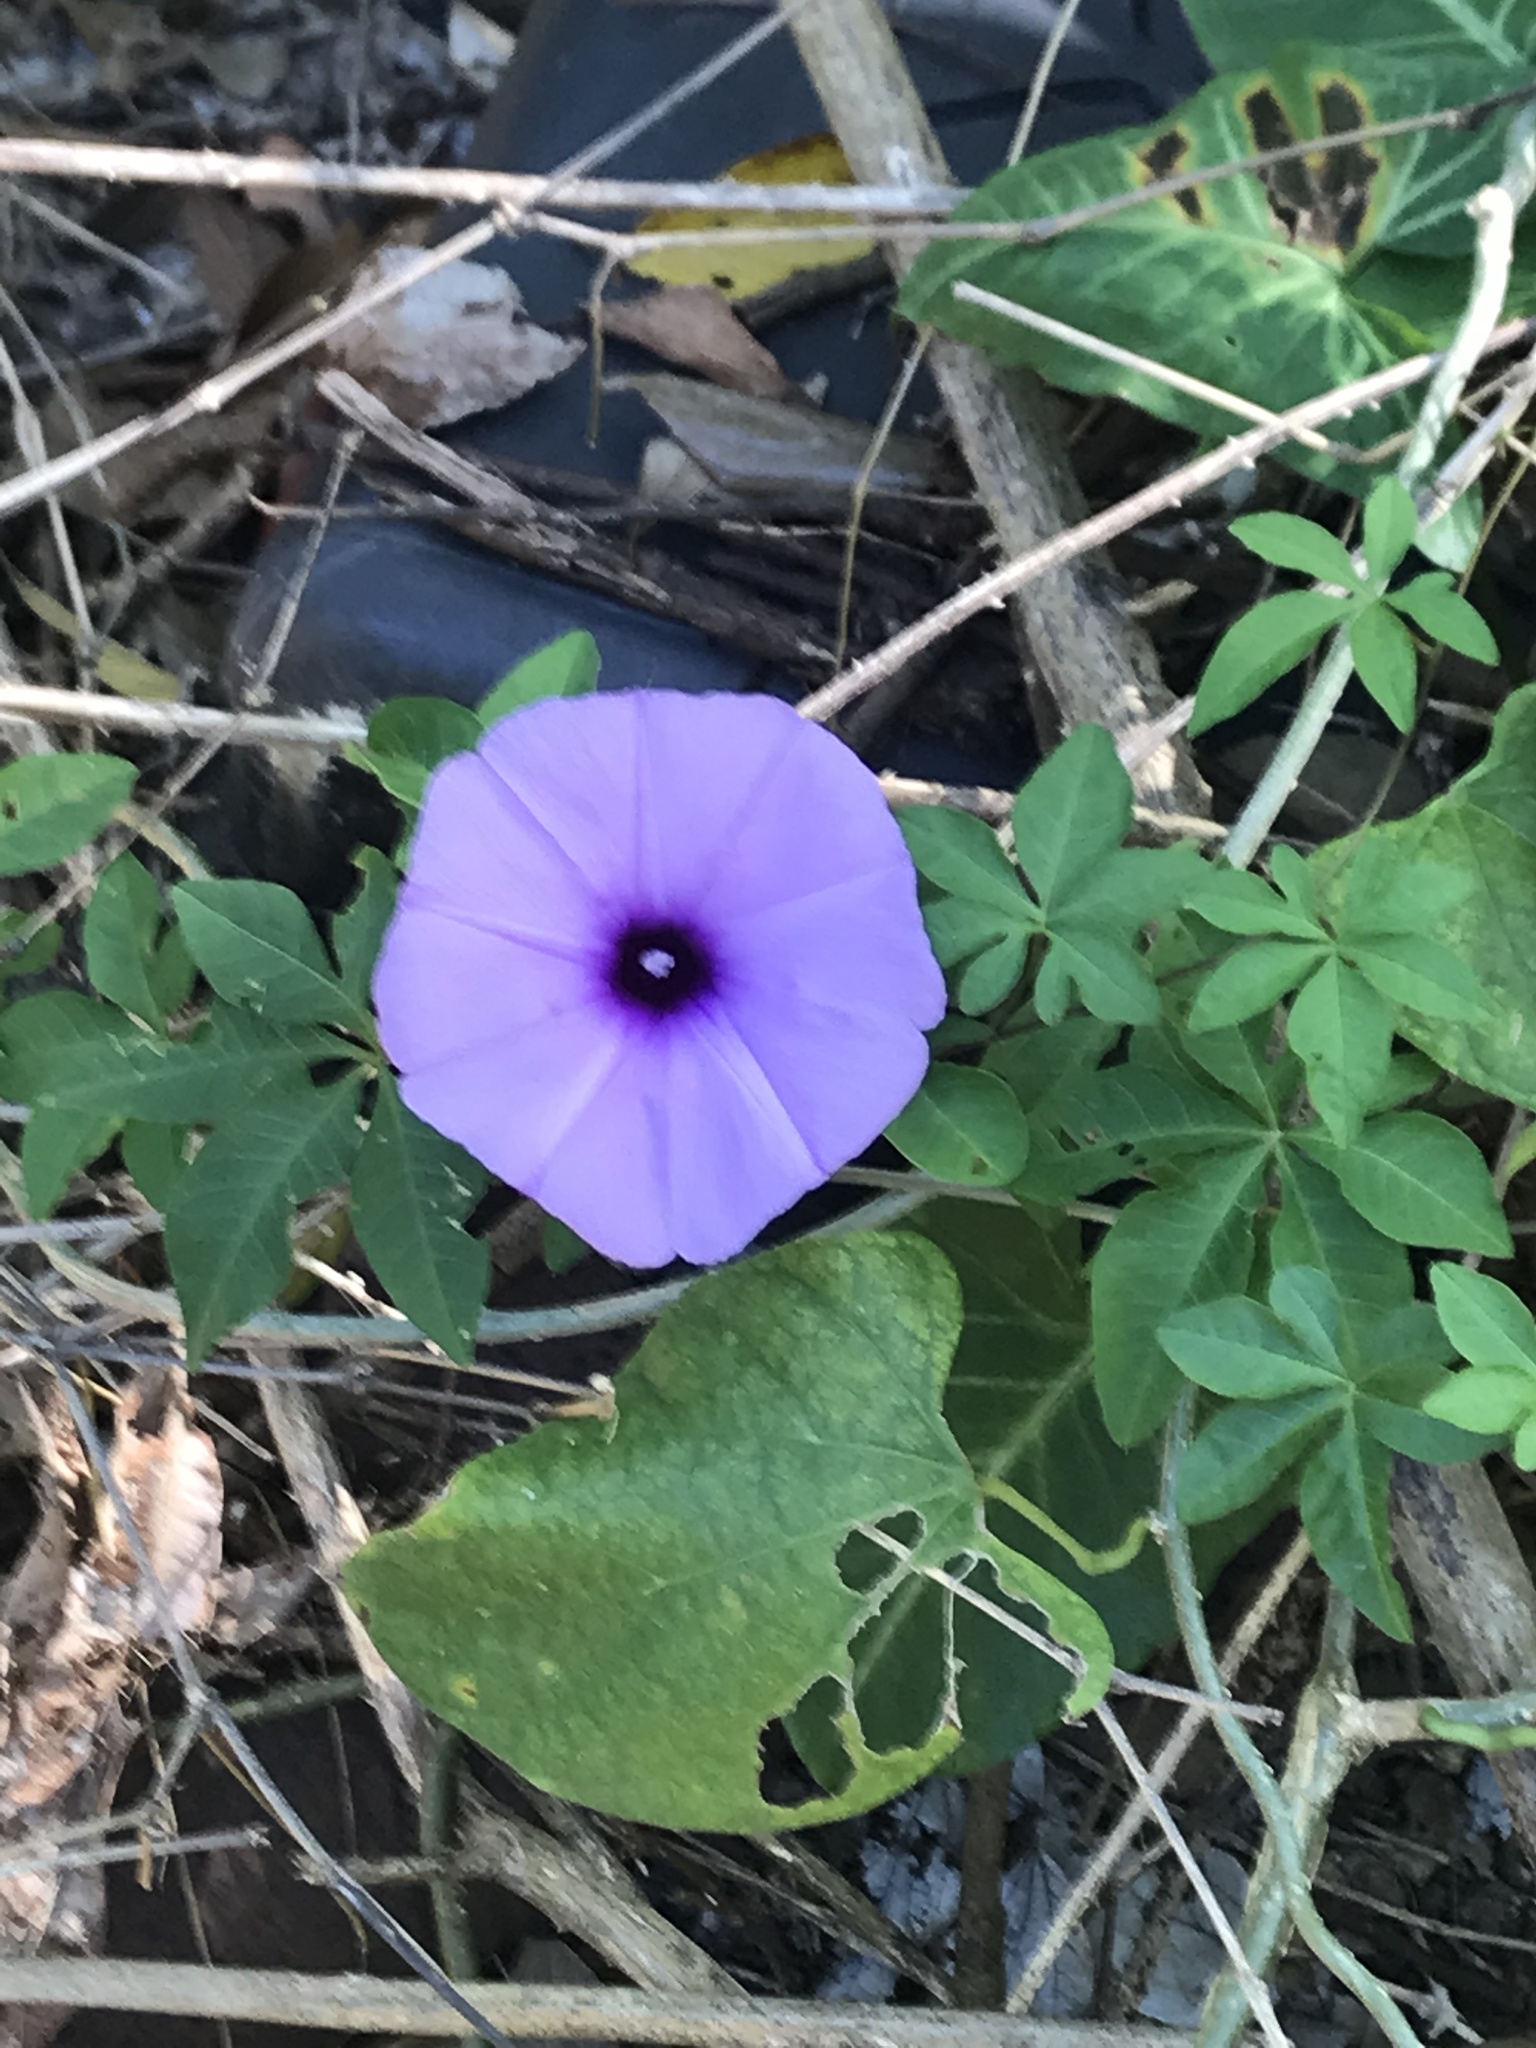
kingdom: Plantae
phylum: Tracheophyta
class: Magnoliopsida
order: Solanales
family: Convolvulaceae
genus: Ipomoea
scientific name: Ipomoea cairica
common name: Mile a minute vine
